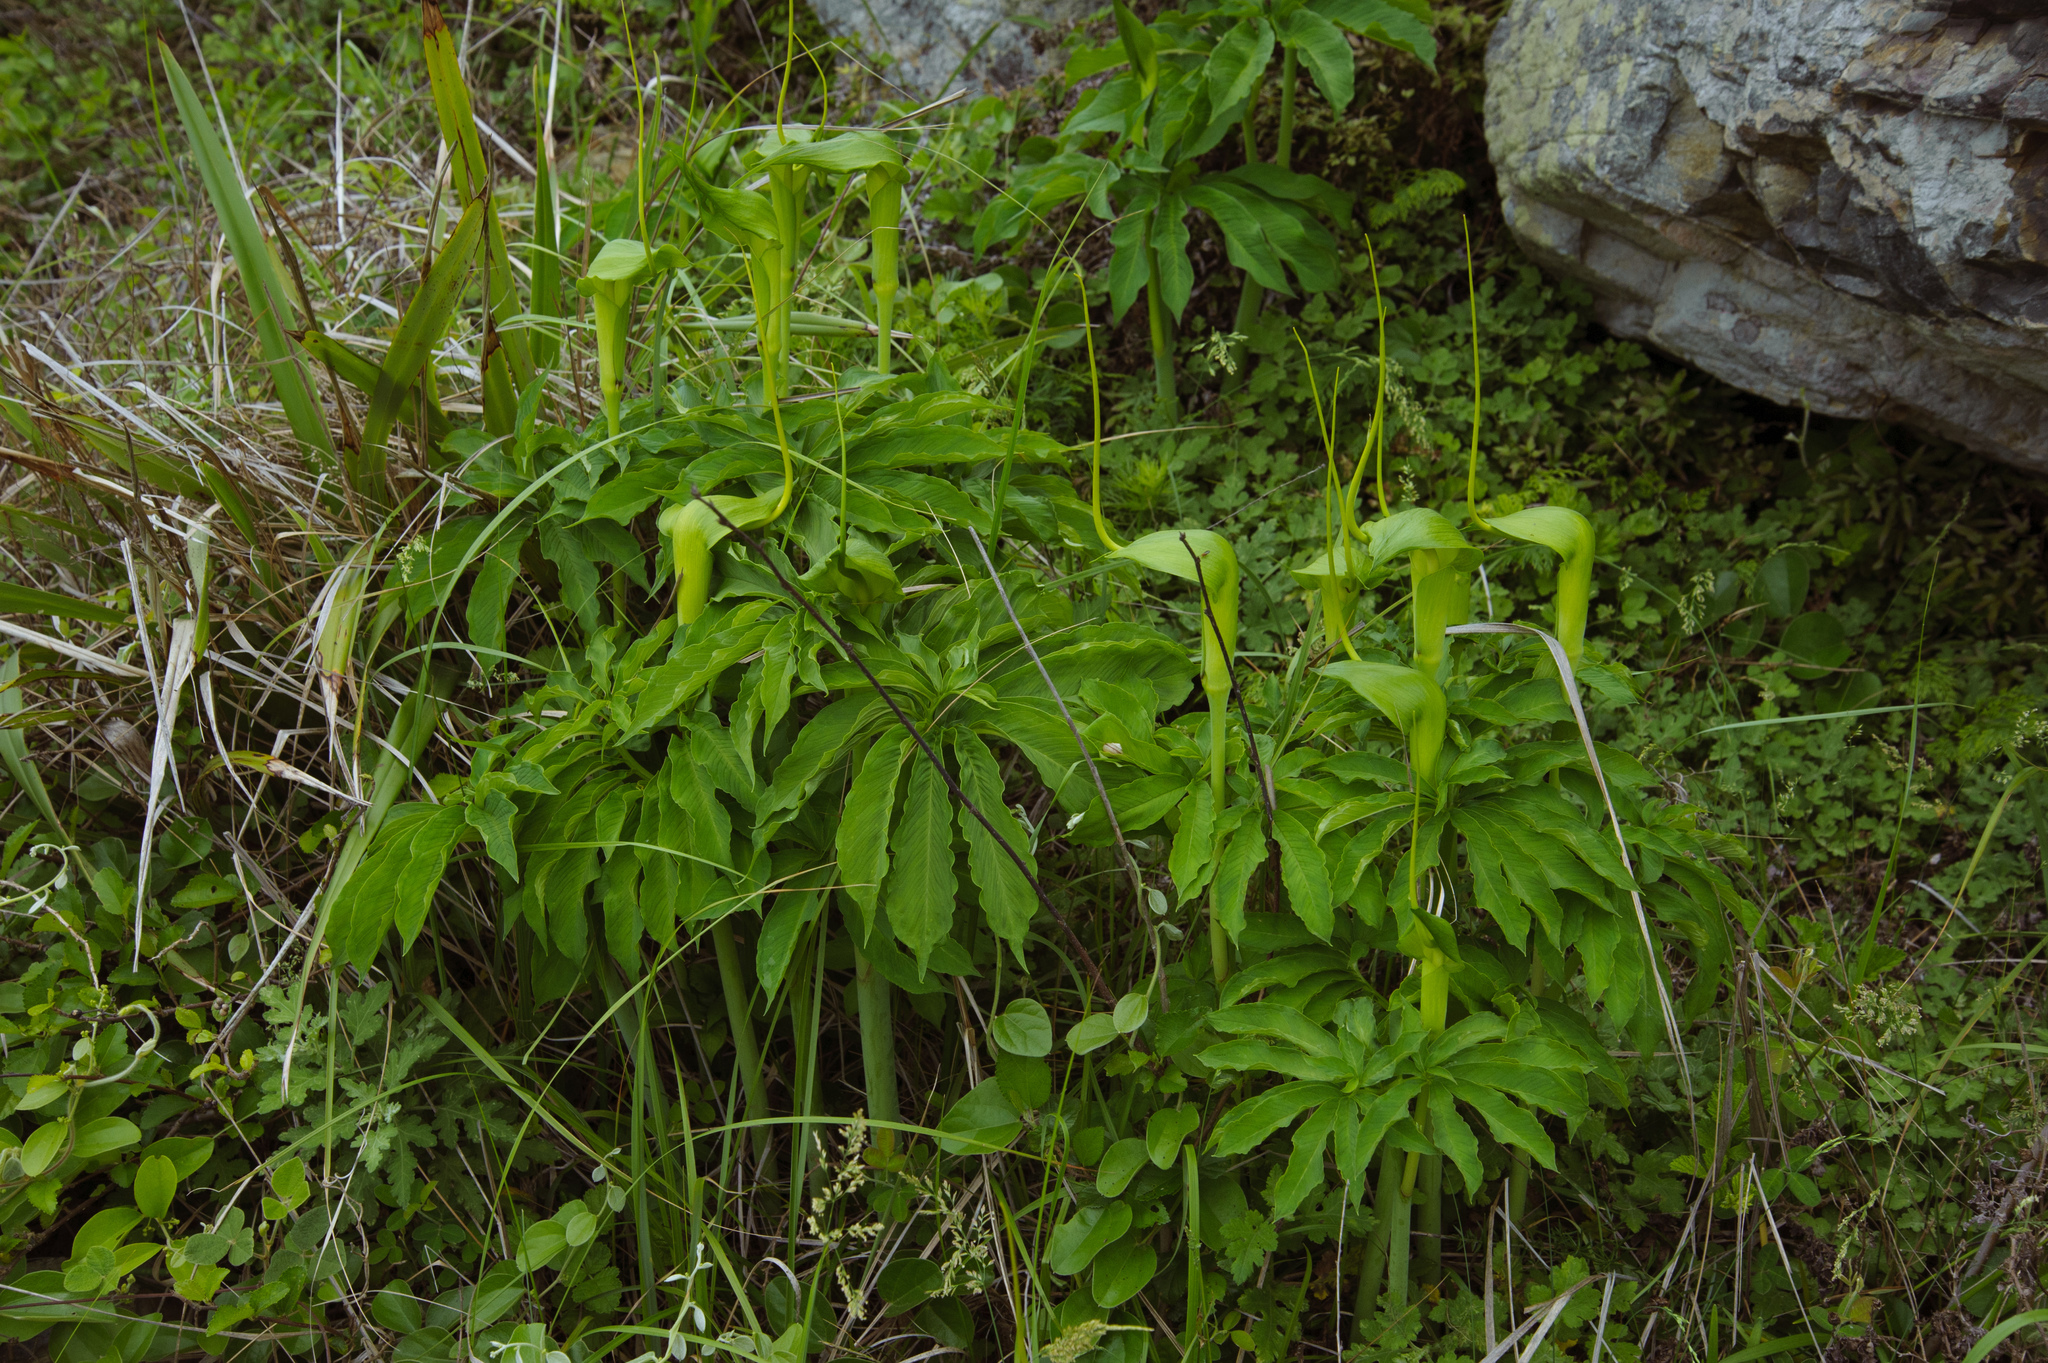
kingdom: Plantae
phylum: Tracheophyta
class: Liliopsida
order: Alismatales
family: Araceae
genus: Arisaema
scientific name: Arisaema heterophyllum
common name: Dancing crane cobra lily
